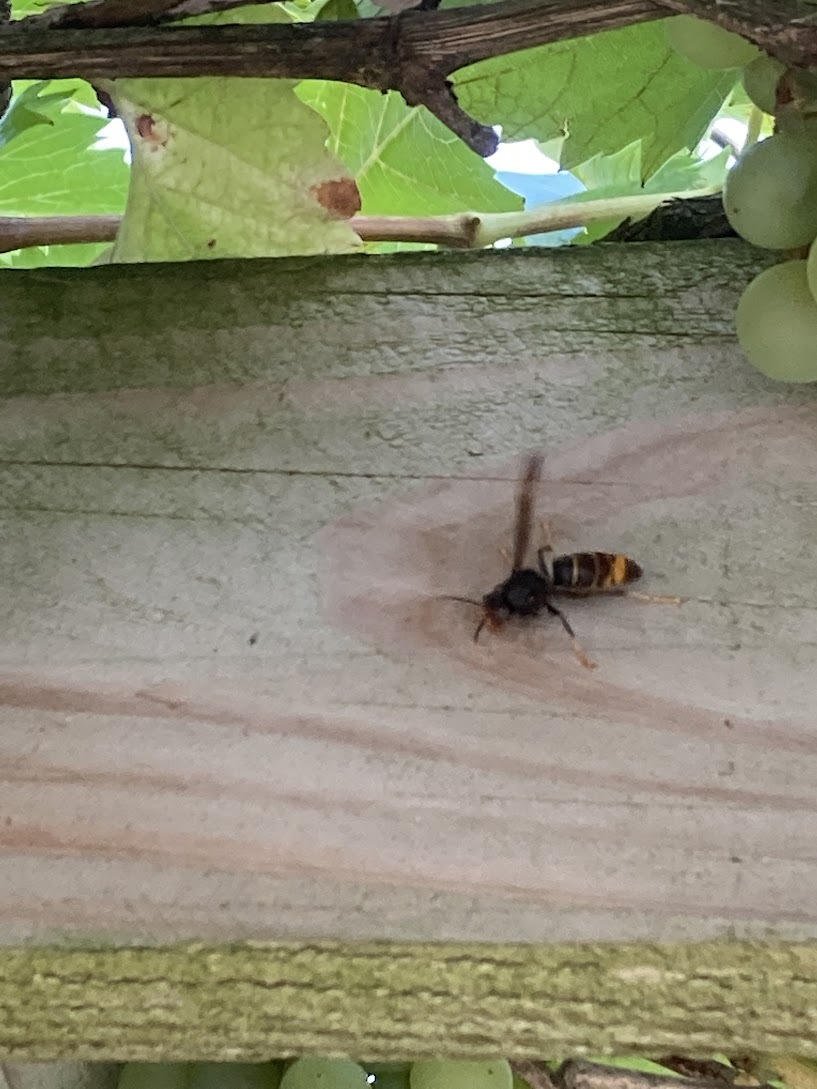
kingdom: Animalia
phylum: Arthropoda
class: Insecta
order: Hymenoptera
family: Vespidae
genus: Vespa
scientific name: Vespa velutina
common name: Asian hornet
